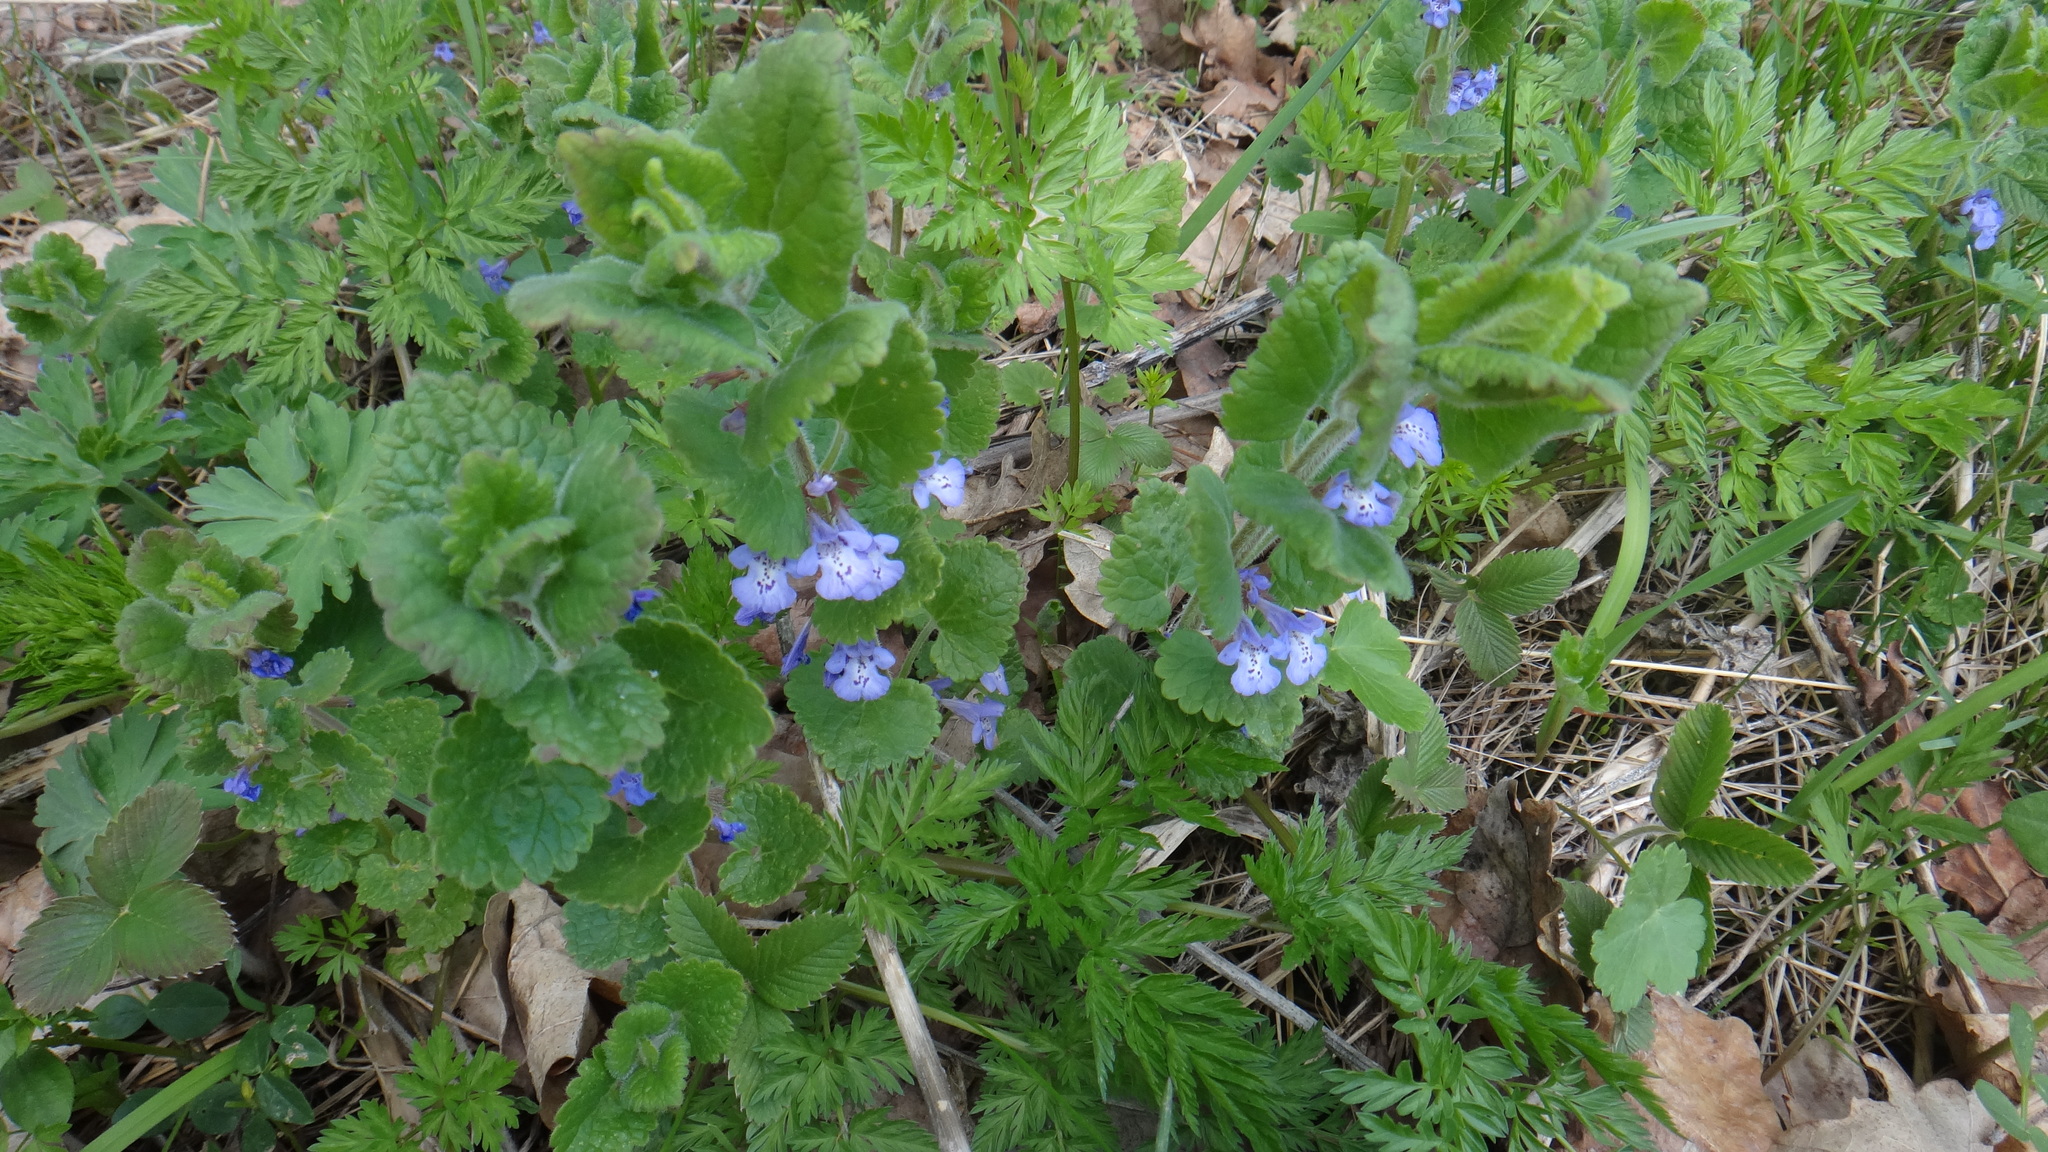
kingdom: Plantae
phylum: Tracheophyta
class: Magnoliopsida
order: Lamiales
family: Lamiaceae
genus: Glechoma
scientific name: Glechoma hederacea
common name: Ground ivy
